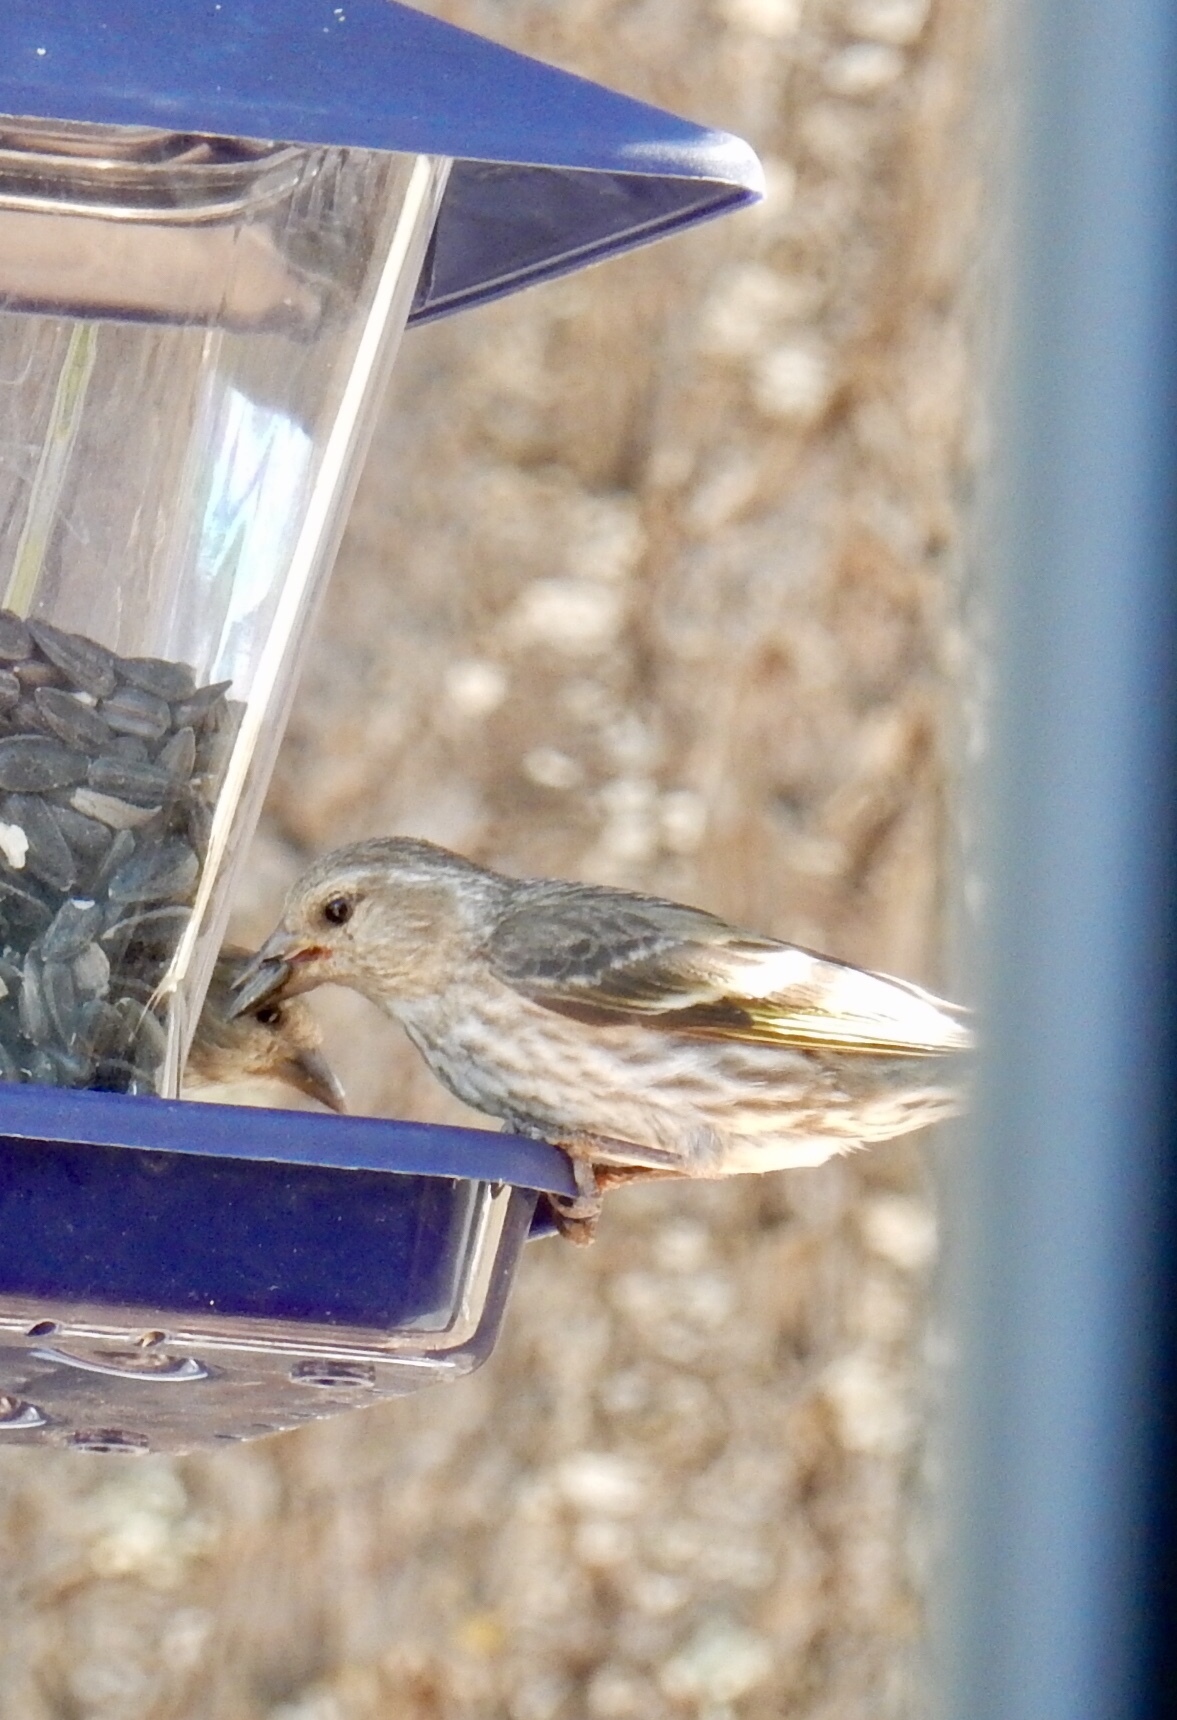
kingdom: Animalia
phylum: Chordata
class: Aves
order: Passeriformes
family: Fringillidae
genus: Spinus
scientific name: Spinus pinus
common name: Pine siskin
